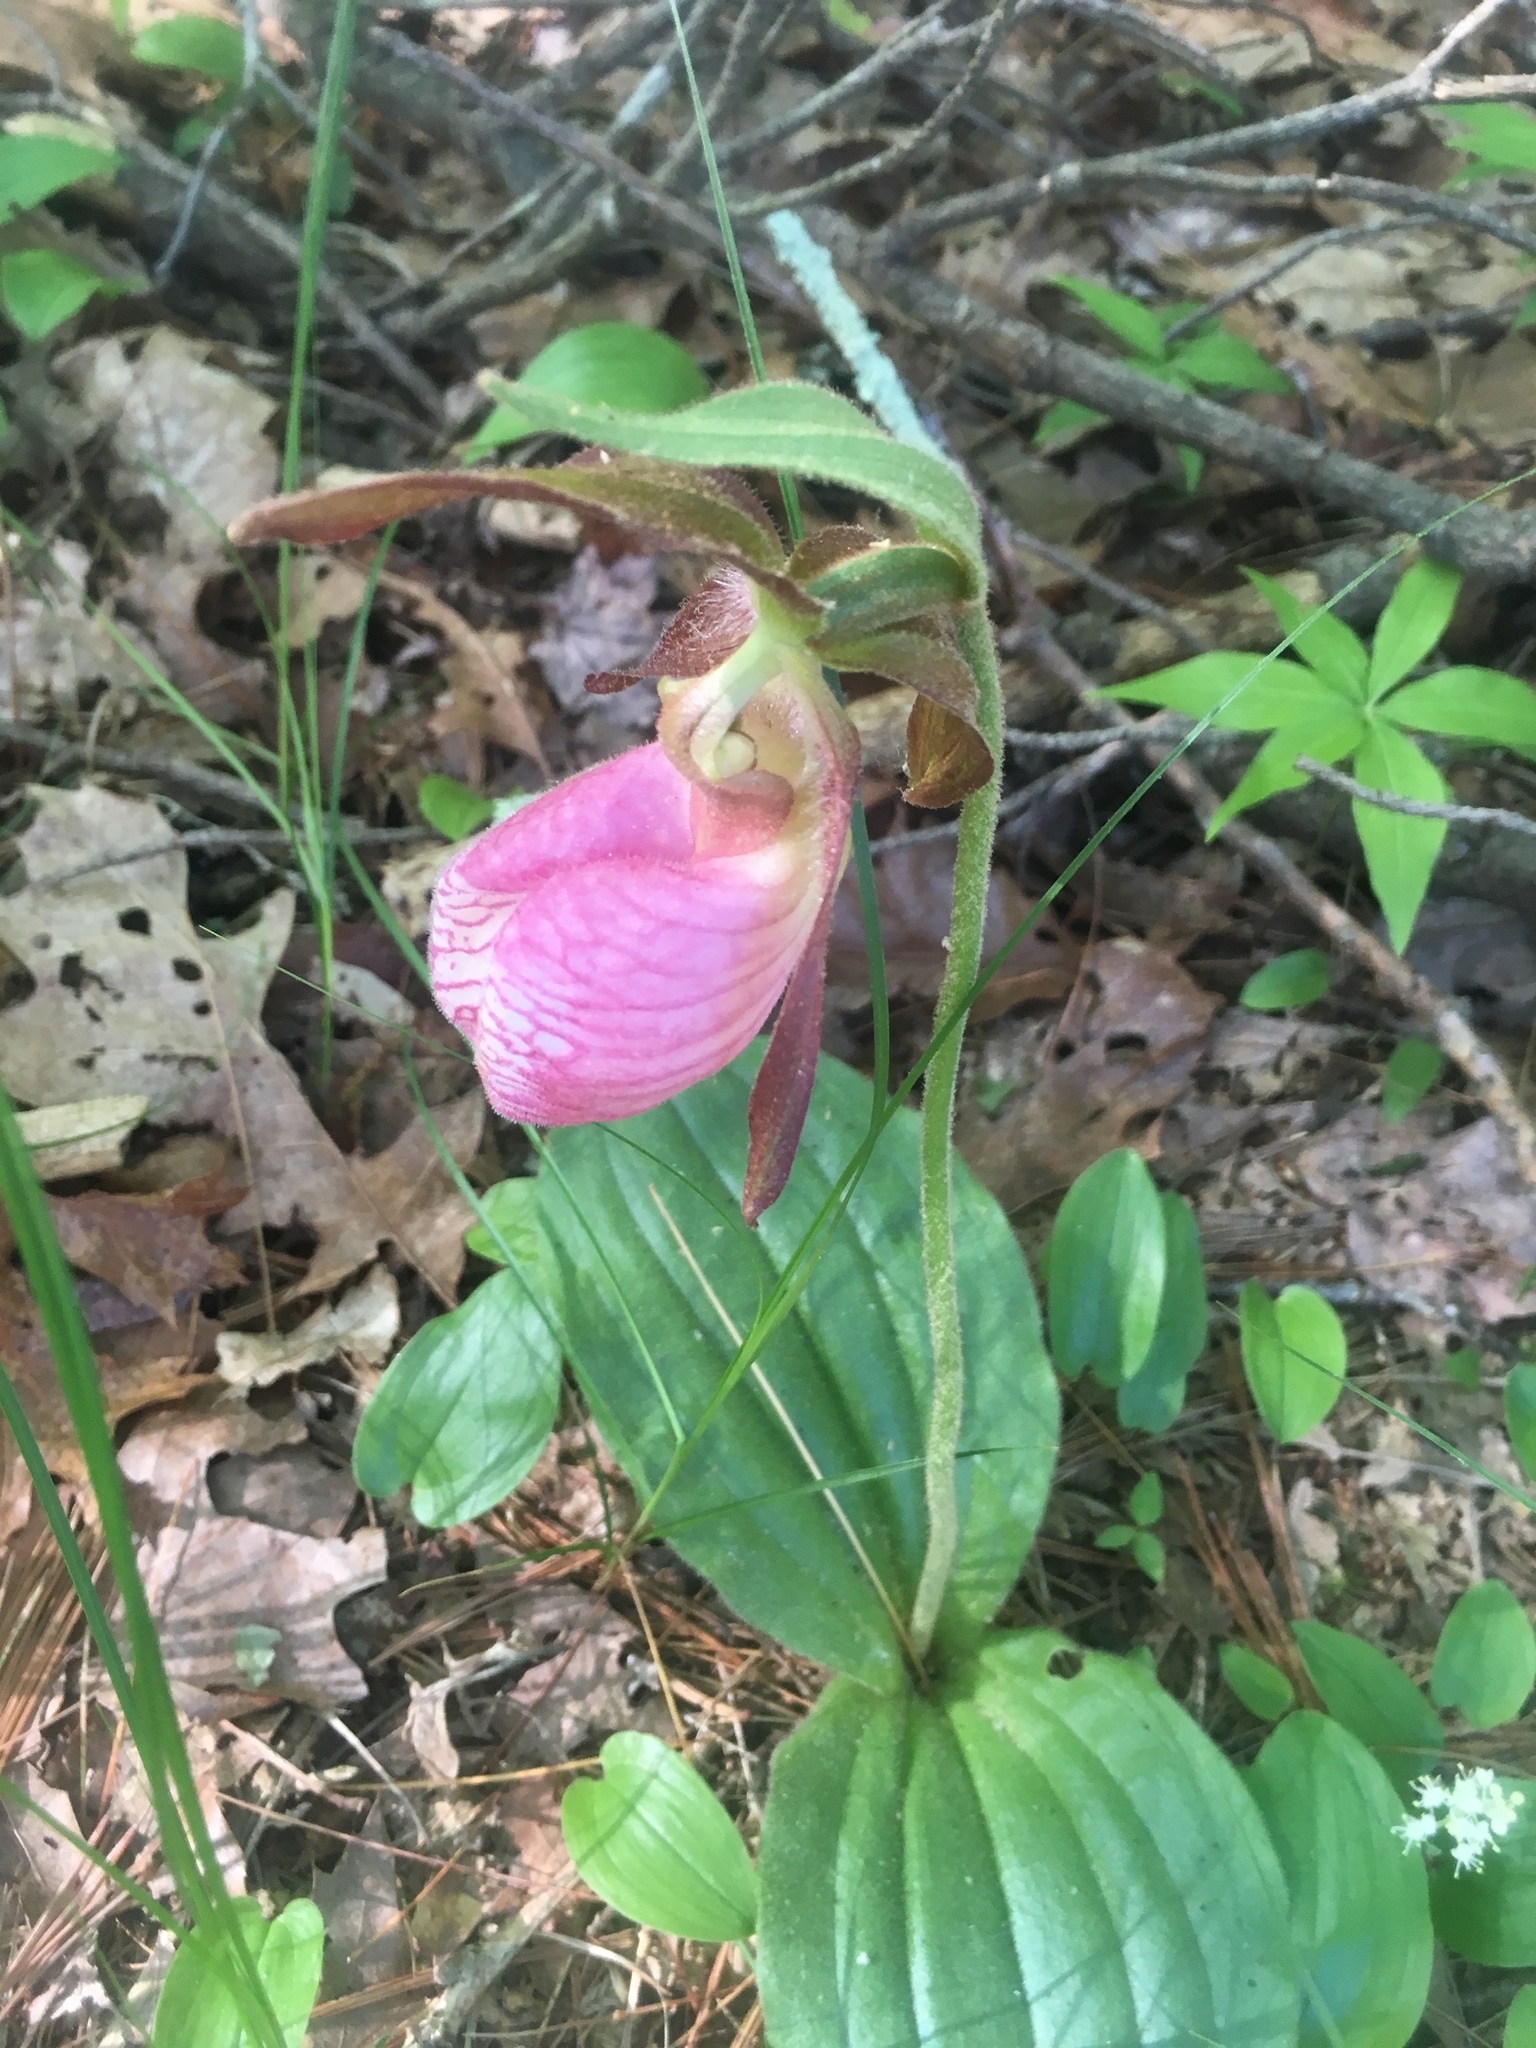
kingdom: Plantae
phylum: Tracheophyta
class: Liliopsida
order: Asparagales
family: Orchidaceae
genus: Cypripedium
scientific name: Cypripedium acaule
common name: Pink lady's-slipper
